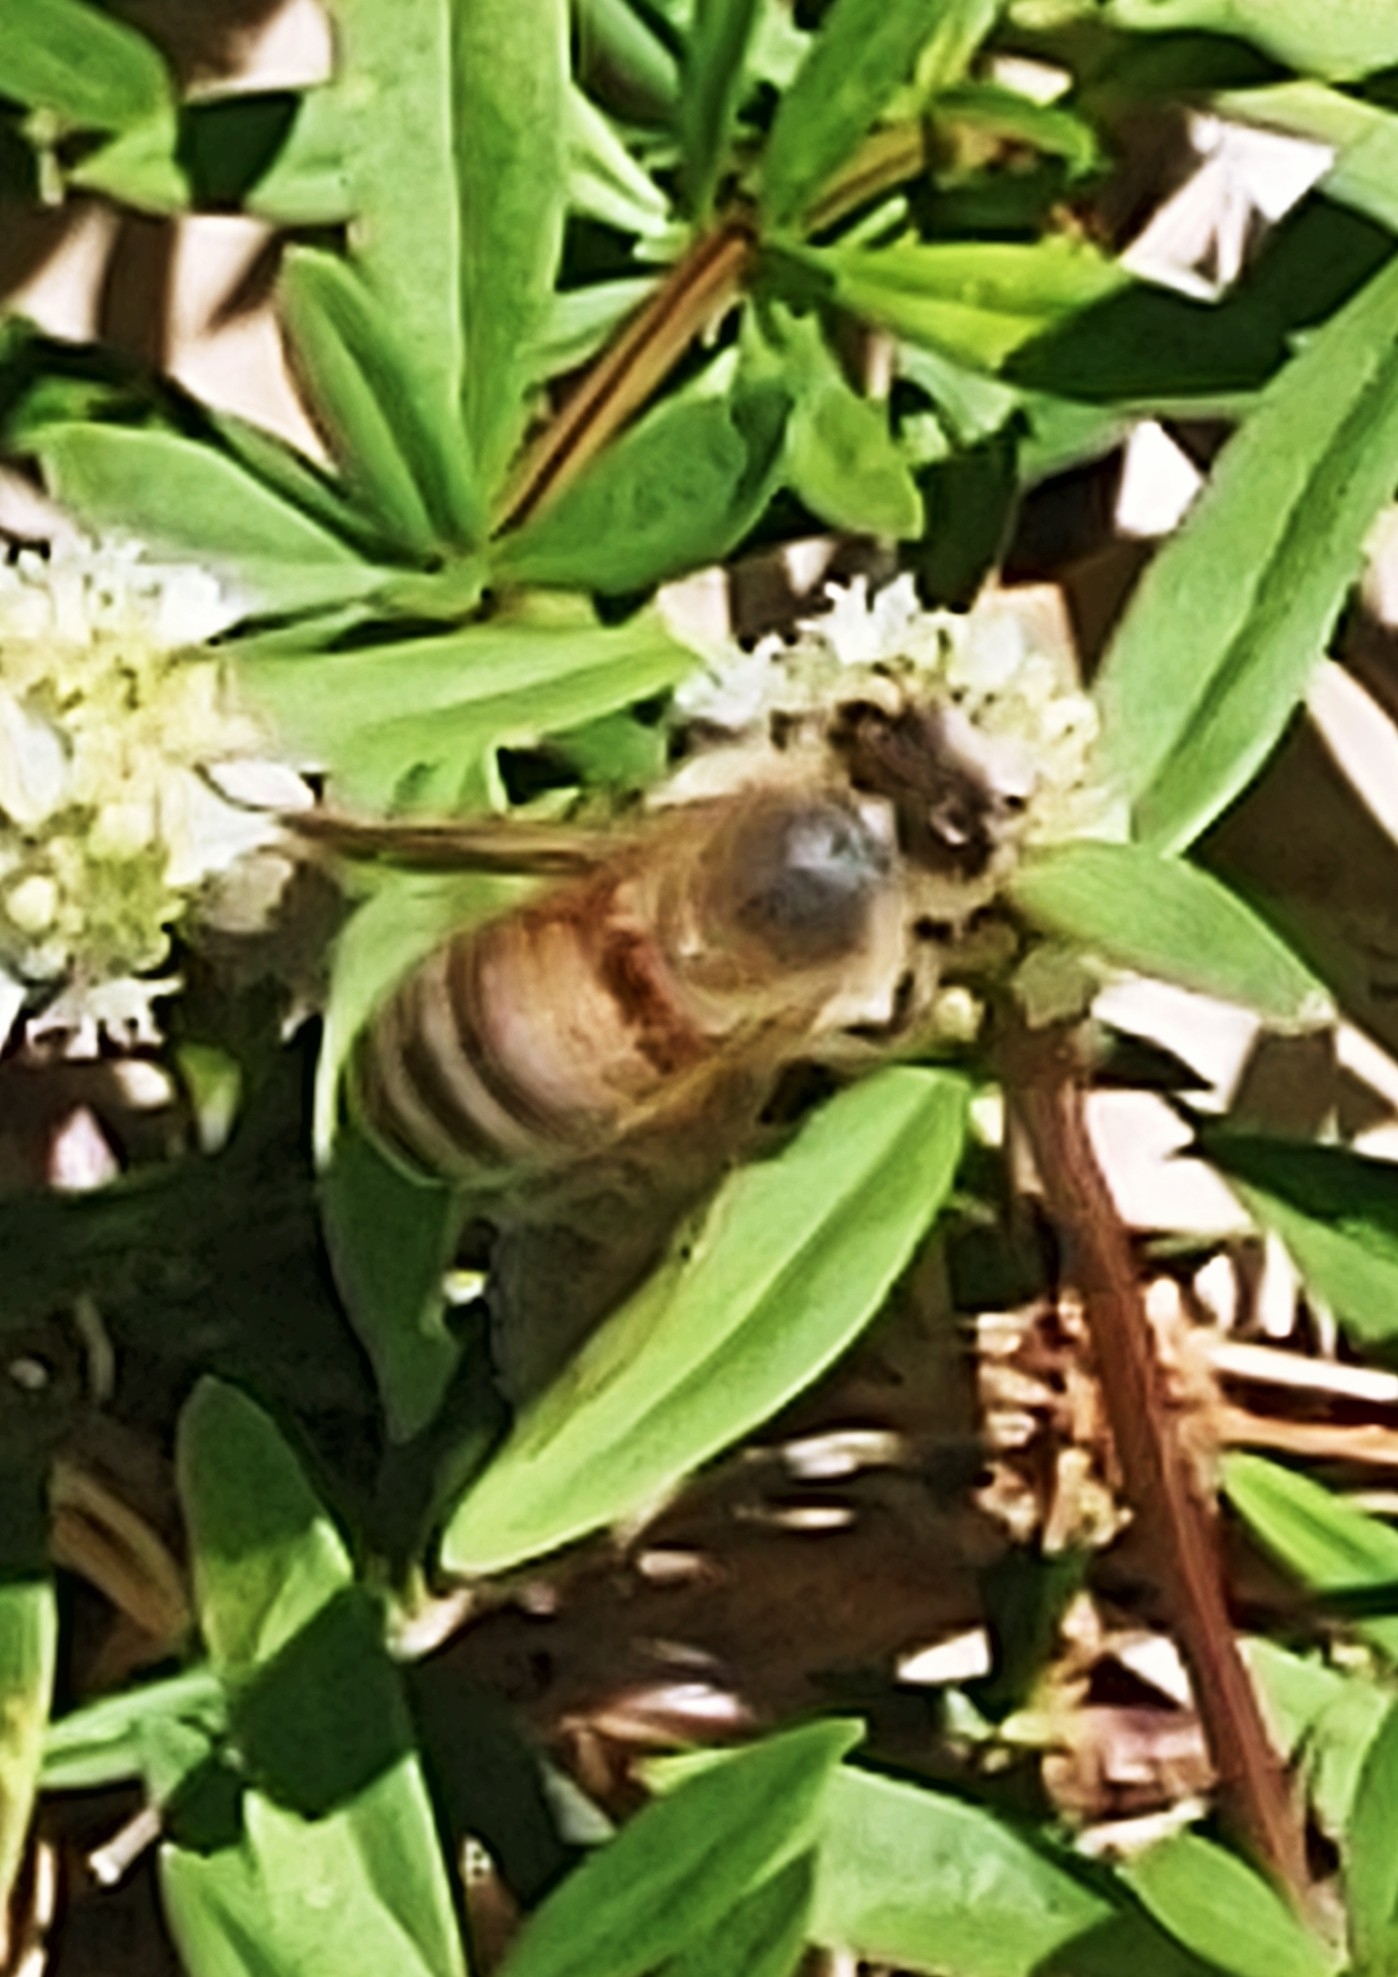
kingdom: Animalia
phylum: Arthropoda
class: Insecta
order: Hymenoptera
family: Apidae
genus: Apis
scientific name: Apis mellifera
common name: Honey bee
